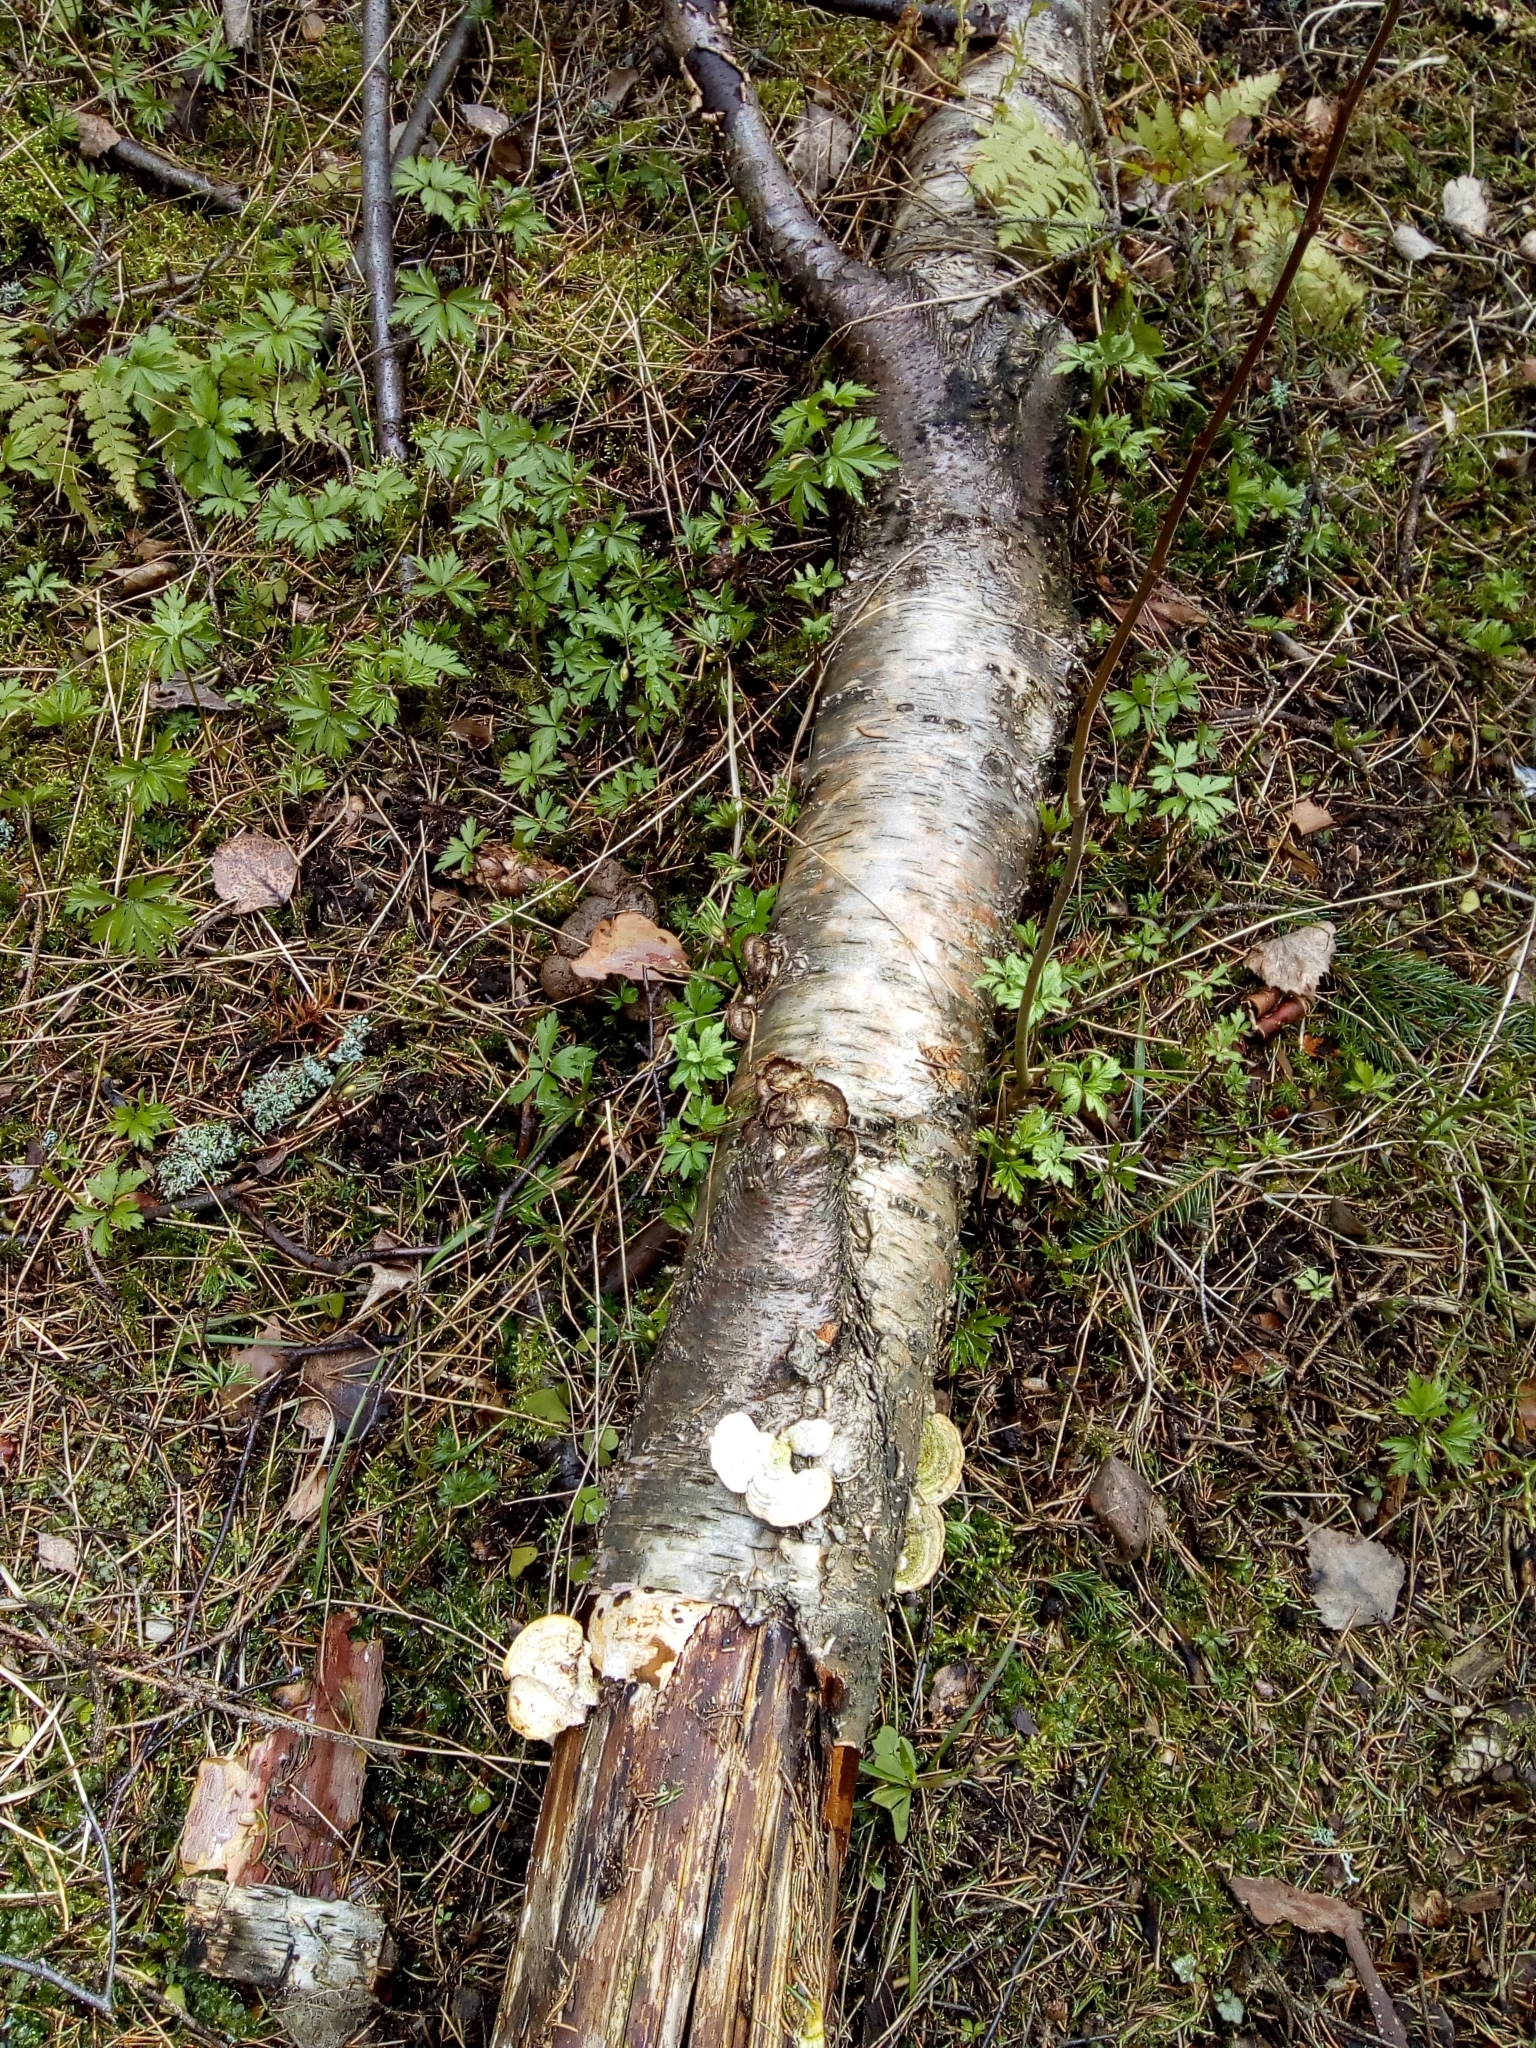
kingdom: Fungi
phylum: Basidiomycota
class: Agaricomycetes
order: Polyporales
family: Polyporaceae
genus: Trametes
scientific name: Trametes hirsuta
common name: Hairy bracket
